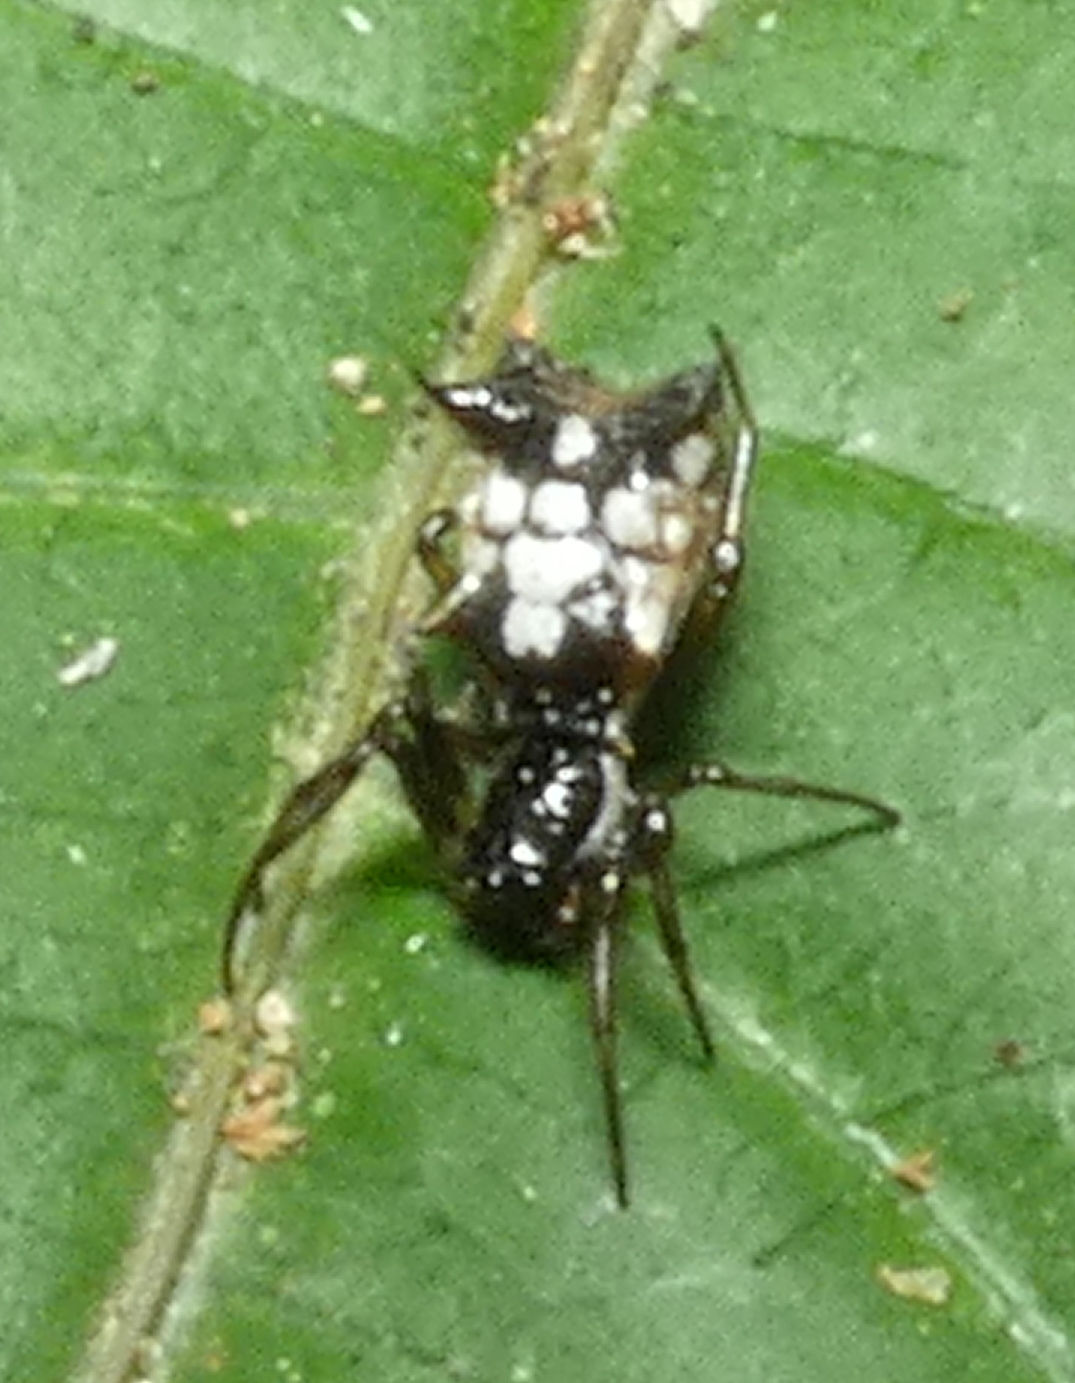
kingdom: Animalia
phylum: Arthropoda
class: Arachnida
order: Araneae
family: Araneidae
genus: Micrathena
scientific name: Micrathena picta
